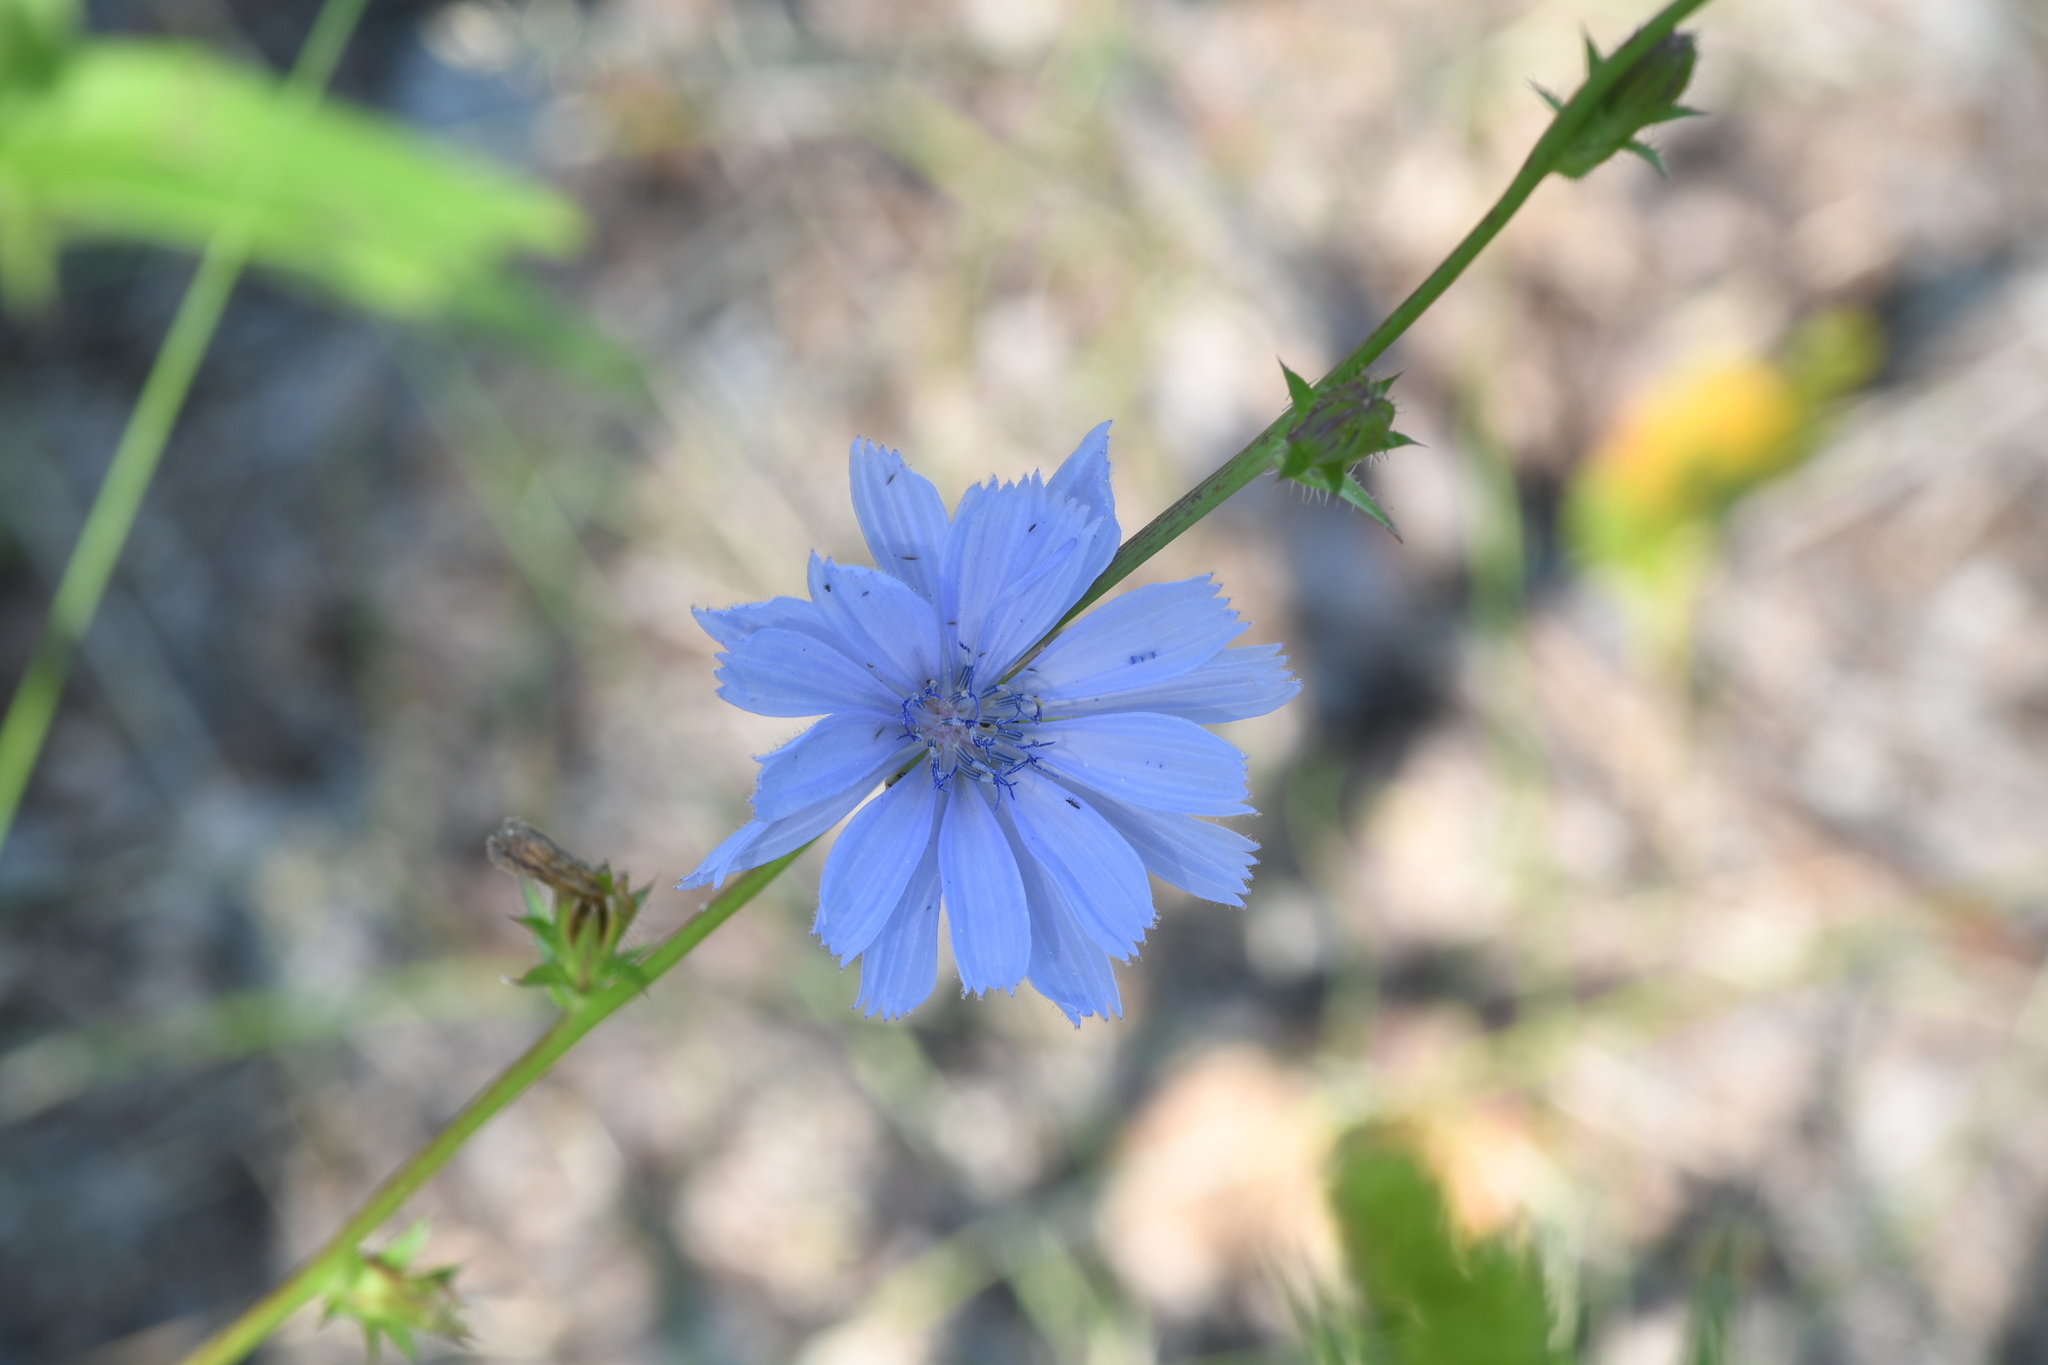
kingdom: Plantae
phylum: Tracheophyta
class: Magnoliopsida
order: Asterales
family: Asteraceae
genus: Cichorium
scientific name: Cichorium intybus
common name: Chicory
